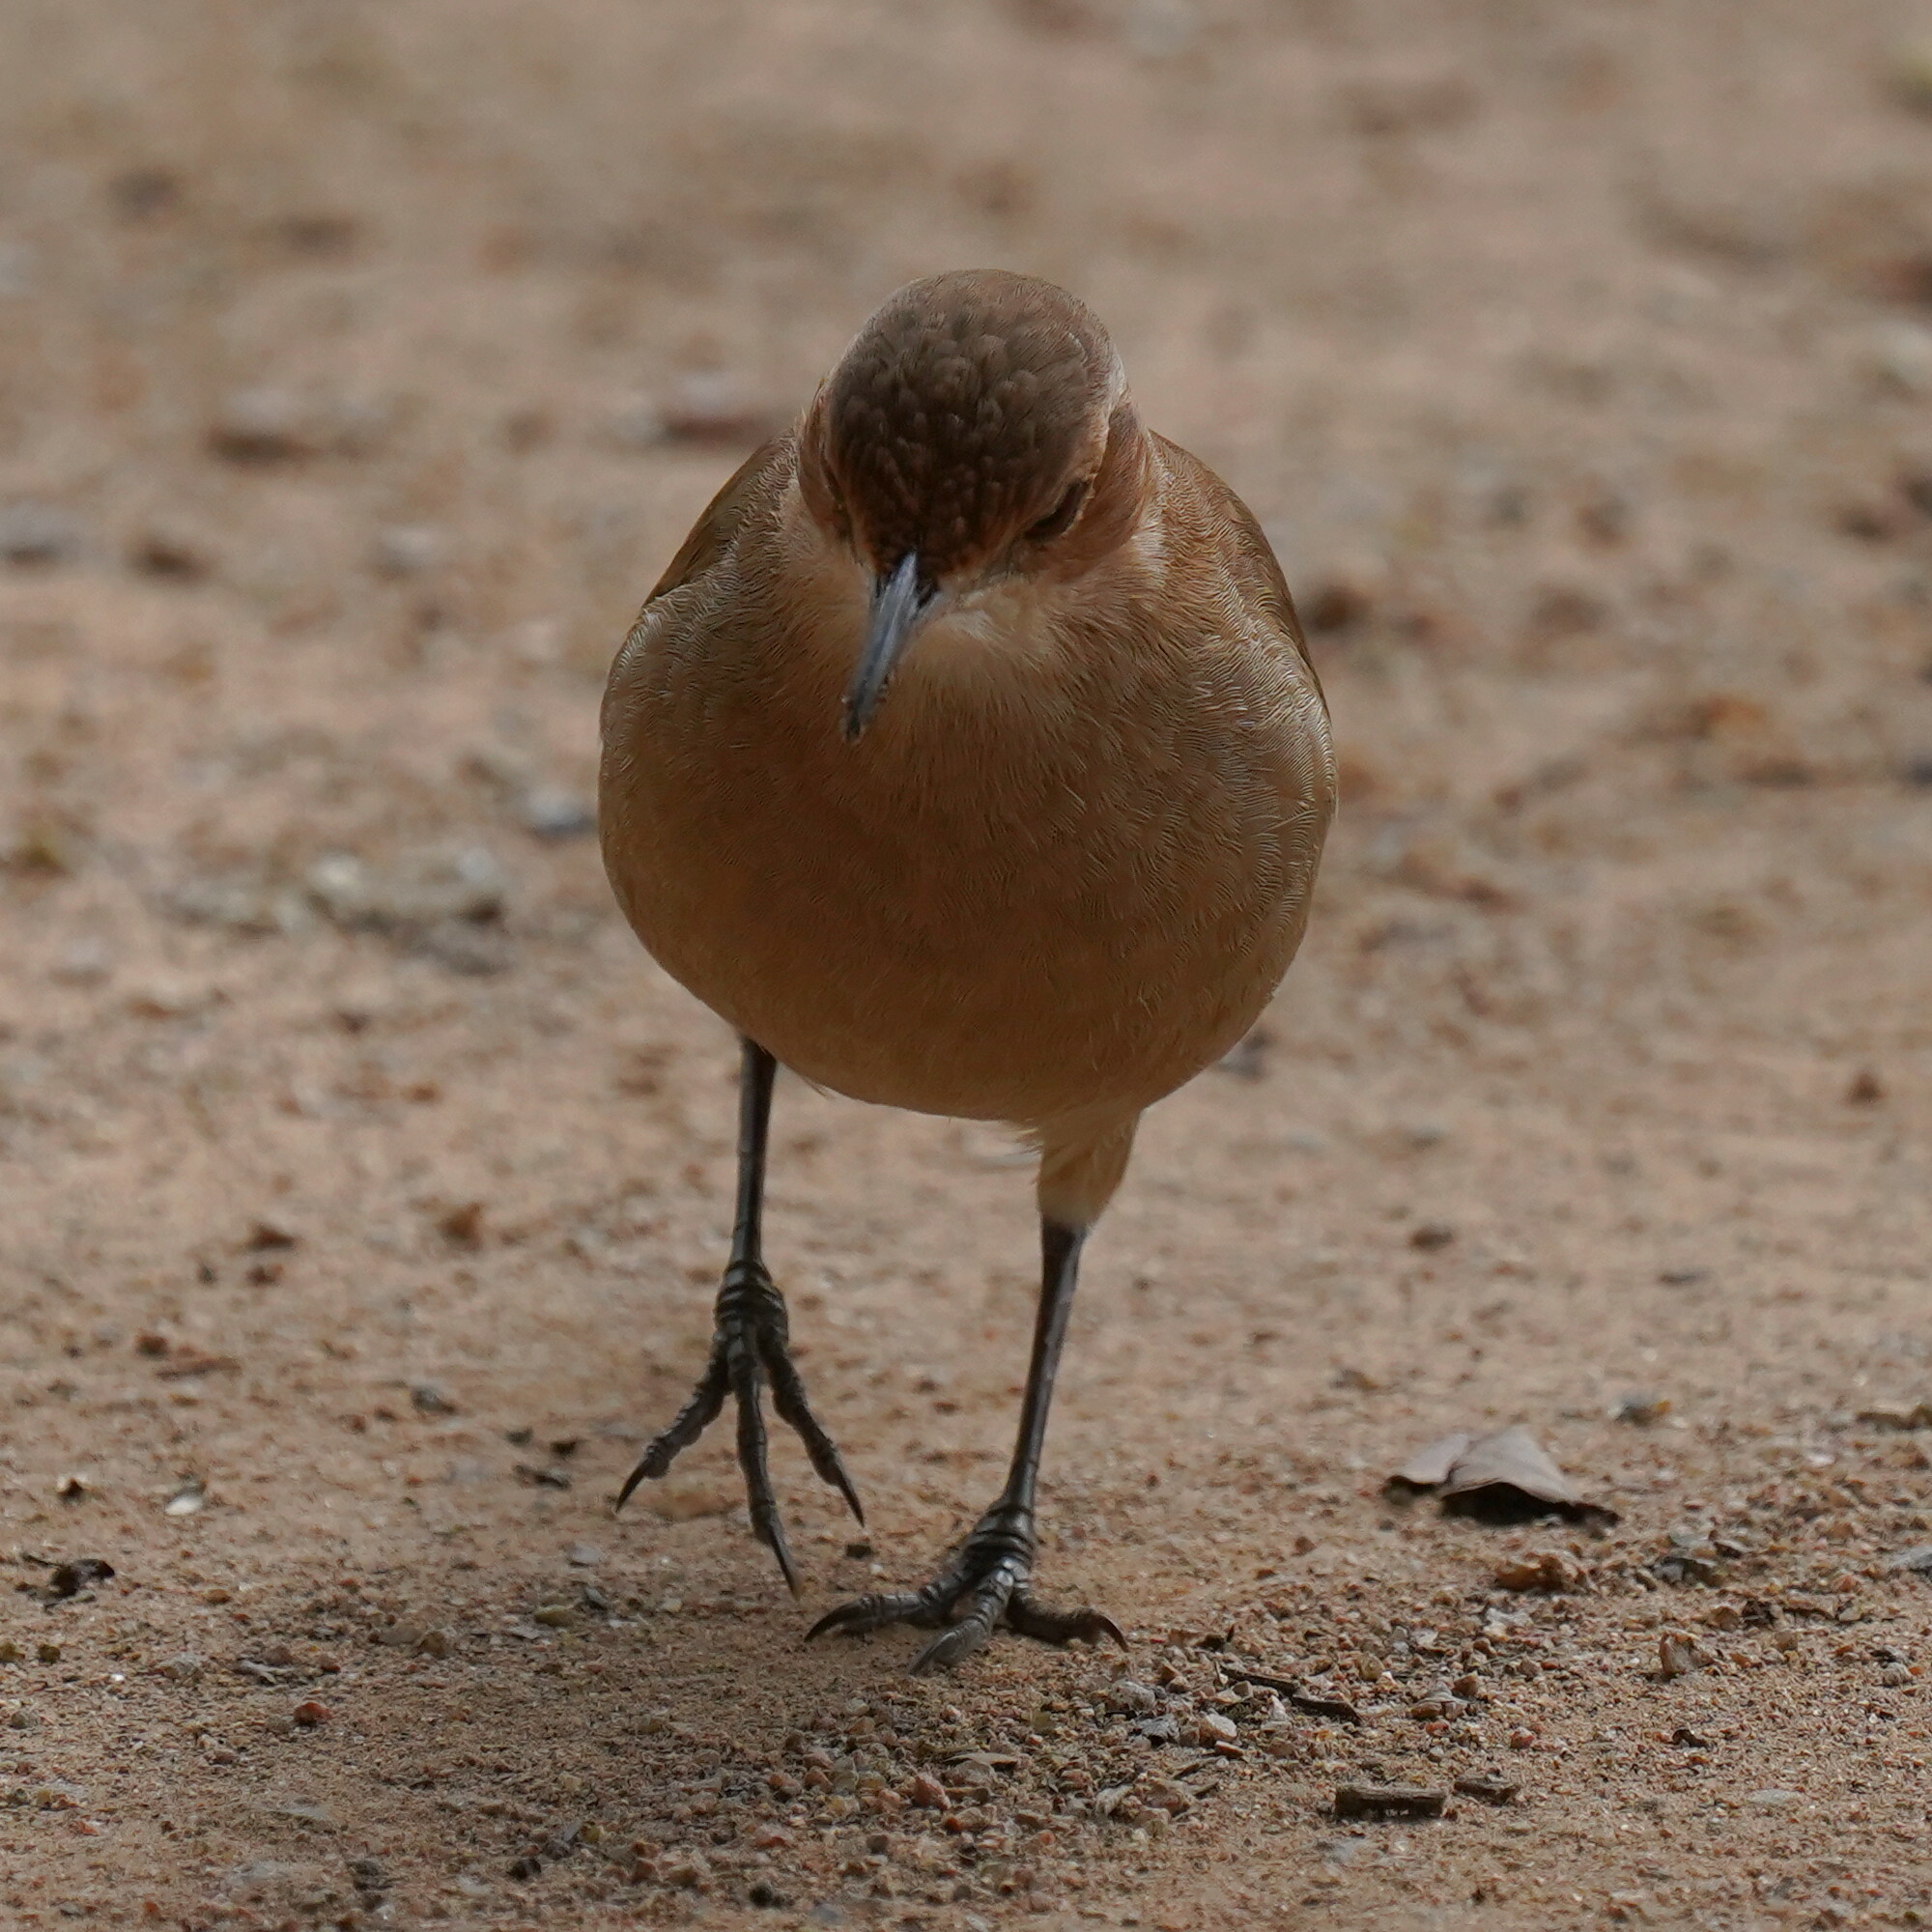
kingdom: Animalia
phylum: Chordata
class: Aves
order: Passeriformes
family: Furnariidae
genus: Furnarius
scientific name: Furnarius rufus
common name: Rufous hornero
